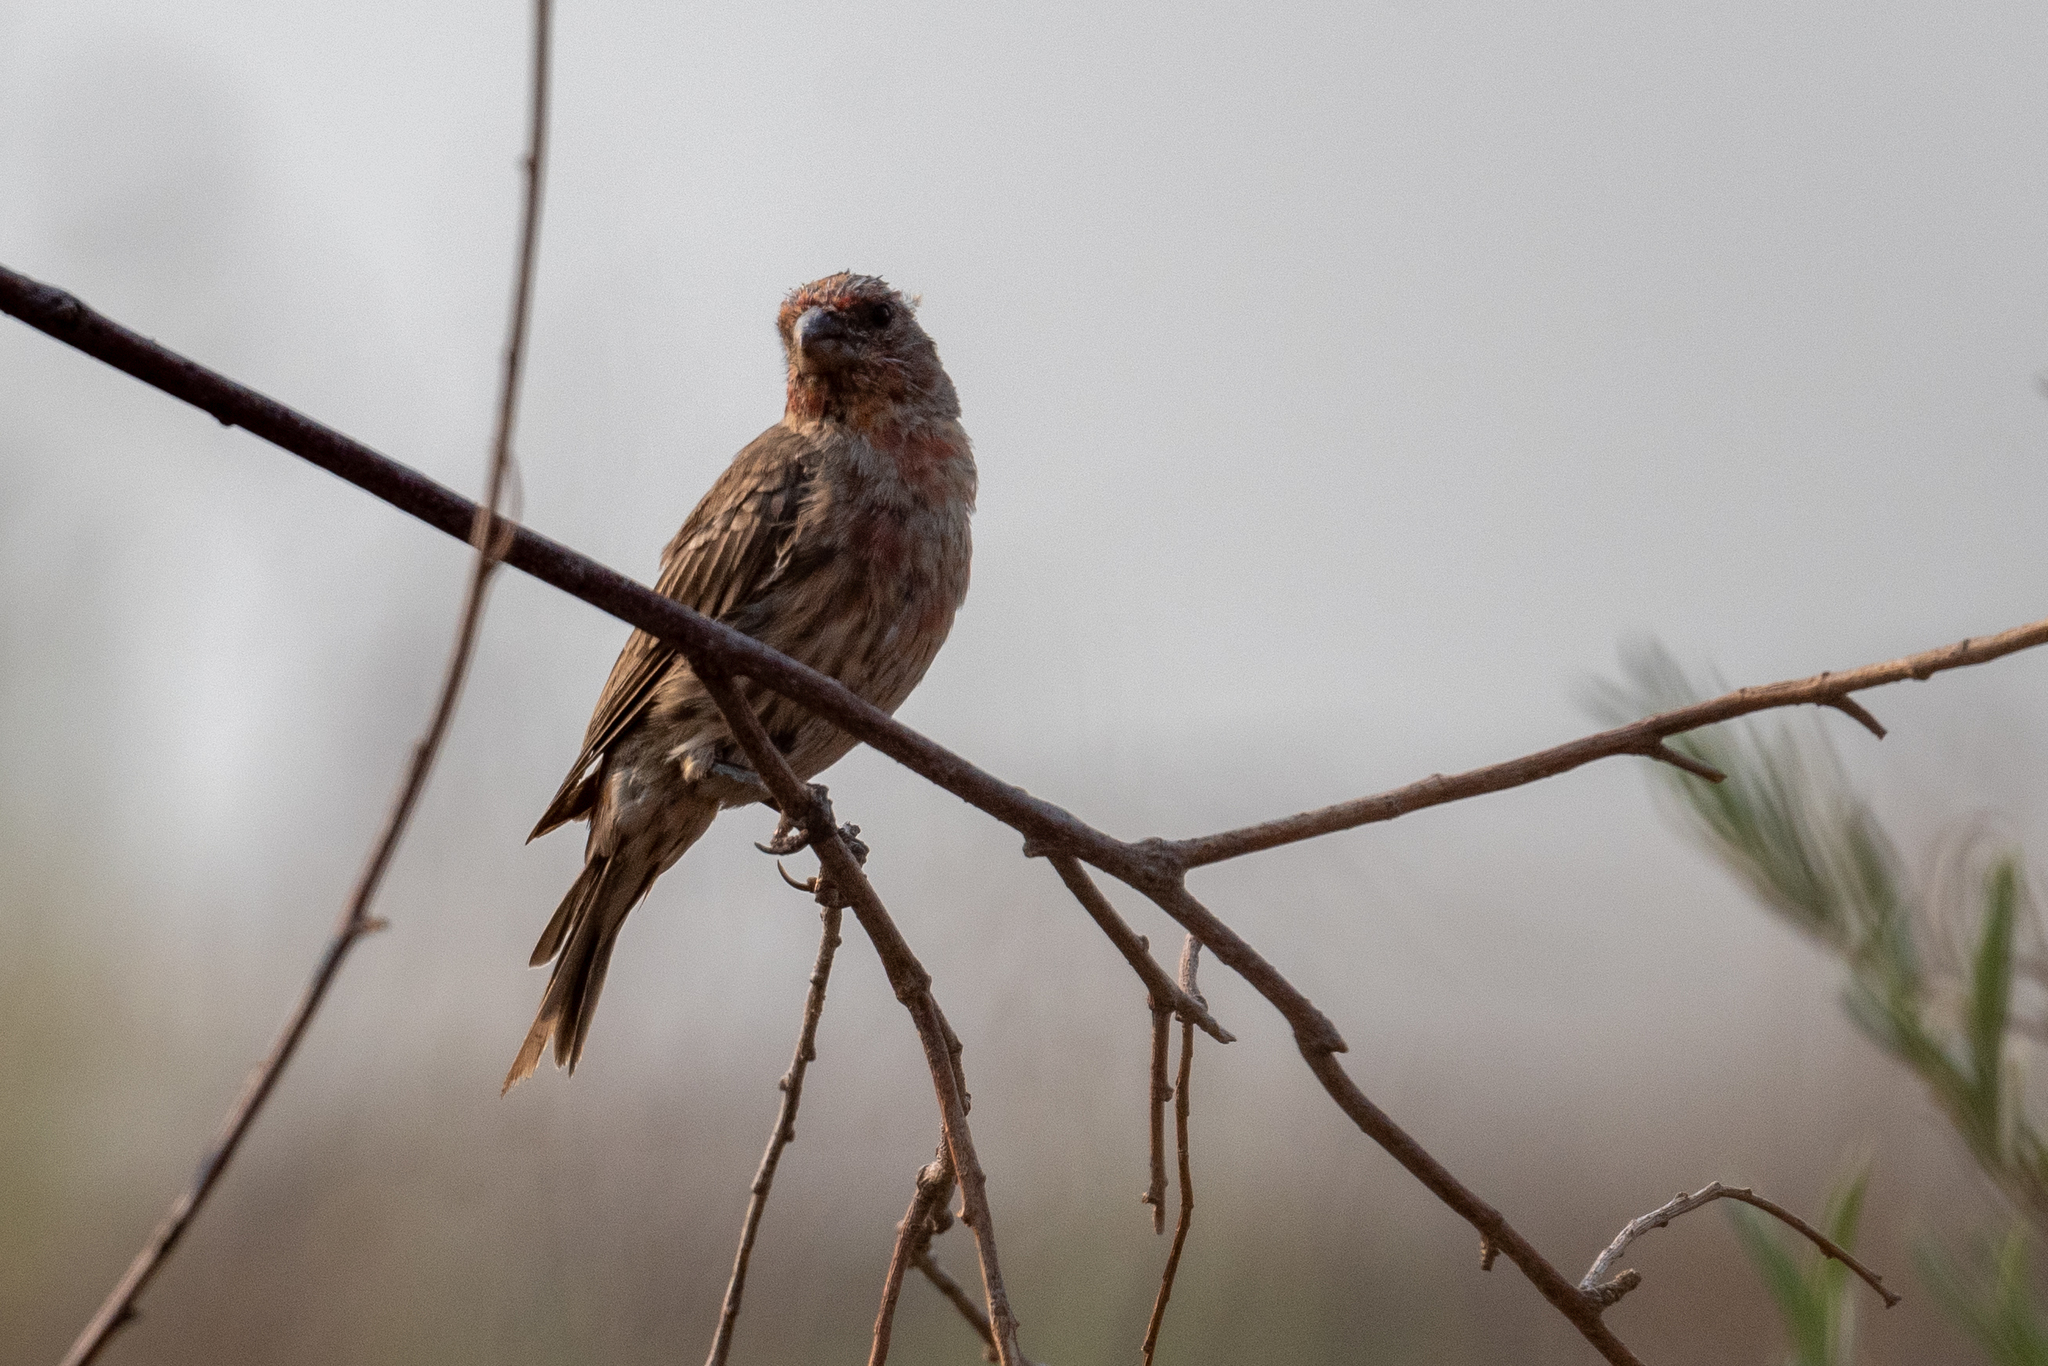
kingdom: Animalia
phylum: Chordata
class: Aves
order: Passeriformes
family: Fringillidae
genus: Haemorhous
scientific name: Haemorhous mexicanus
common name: House finch
